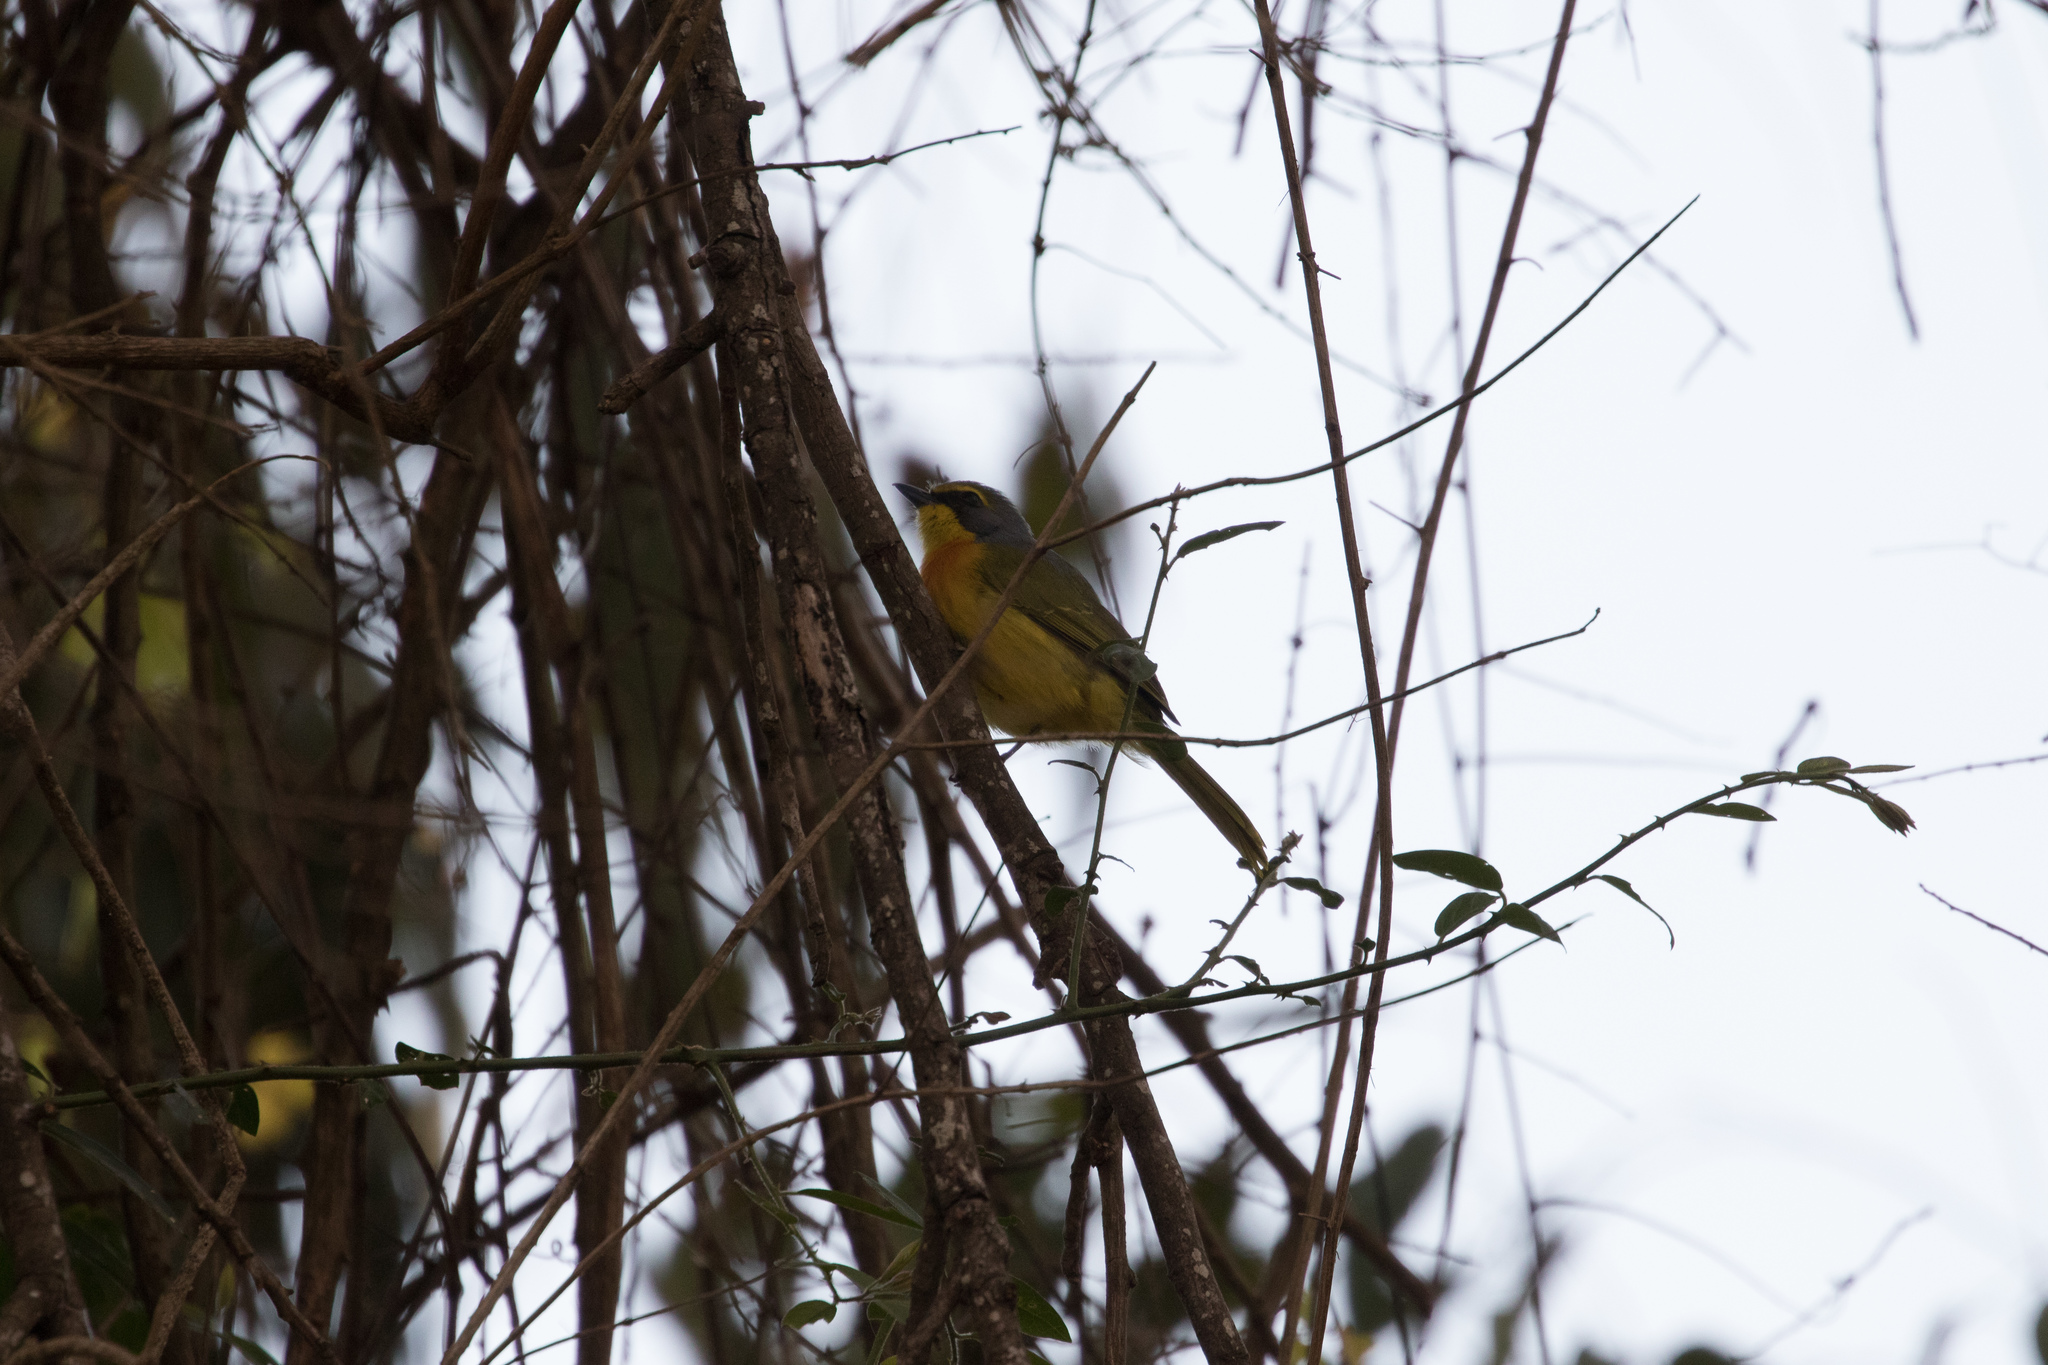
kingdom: Animalia
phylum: Chordata
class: Aves
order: Passeriformes
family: Malaconotidae
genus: Chlorophoneus
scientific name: Chlorophoneus sulfureopectus
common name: Orange-breasted bushshrike
